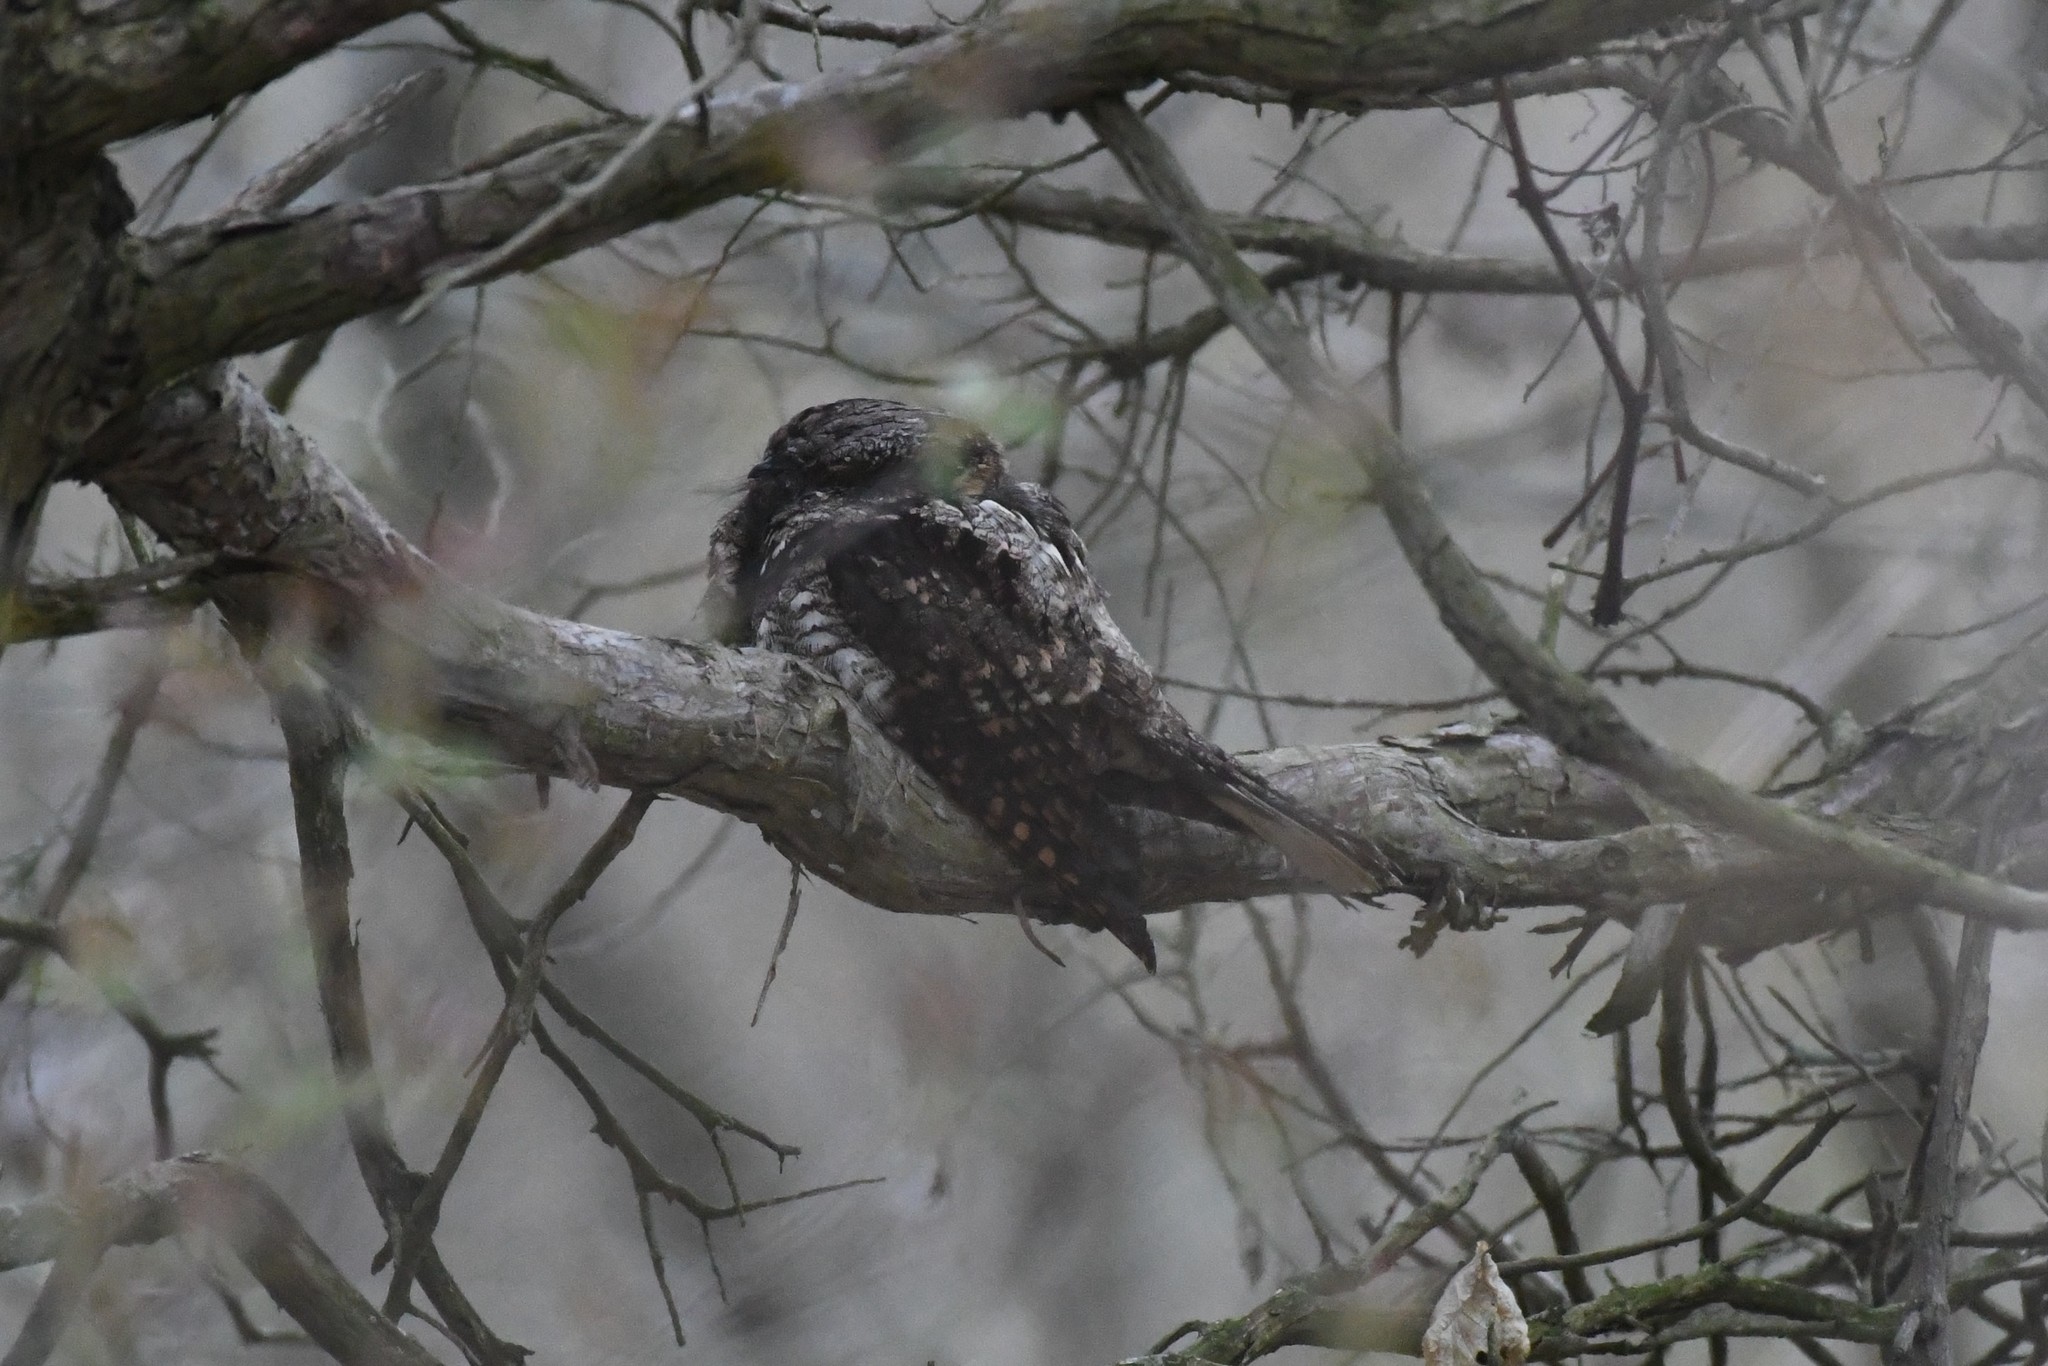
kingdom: Animalia
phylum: Chordata
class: Aves
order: Caprimulgiformes
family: Caprimulgidae
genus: Antrostomus
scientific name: Antrostomus vociferus
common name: Eastern whip-poor-will
